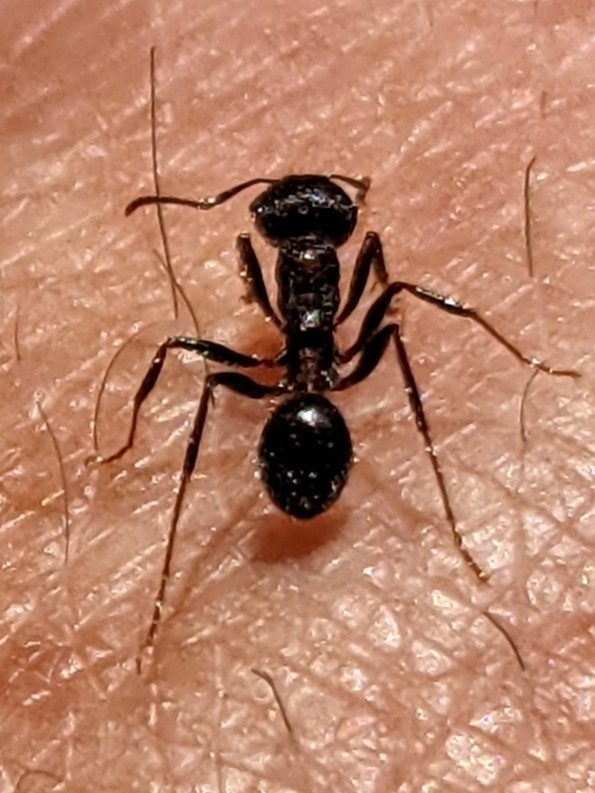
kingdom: Animalia
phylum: Arthropoda
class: Insecta
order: Hymenoptera
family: Formicidae
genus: Veromessor
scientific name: Veromessor andrei
